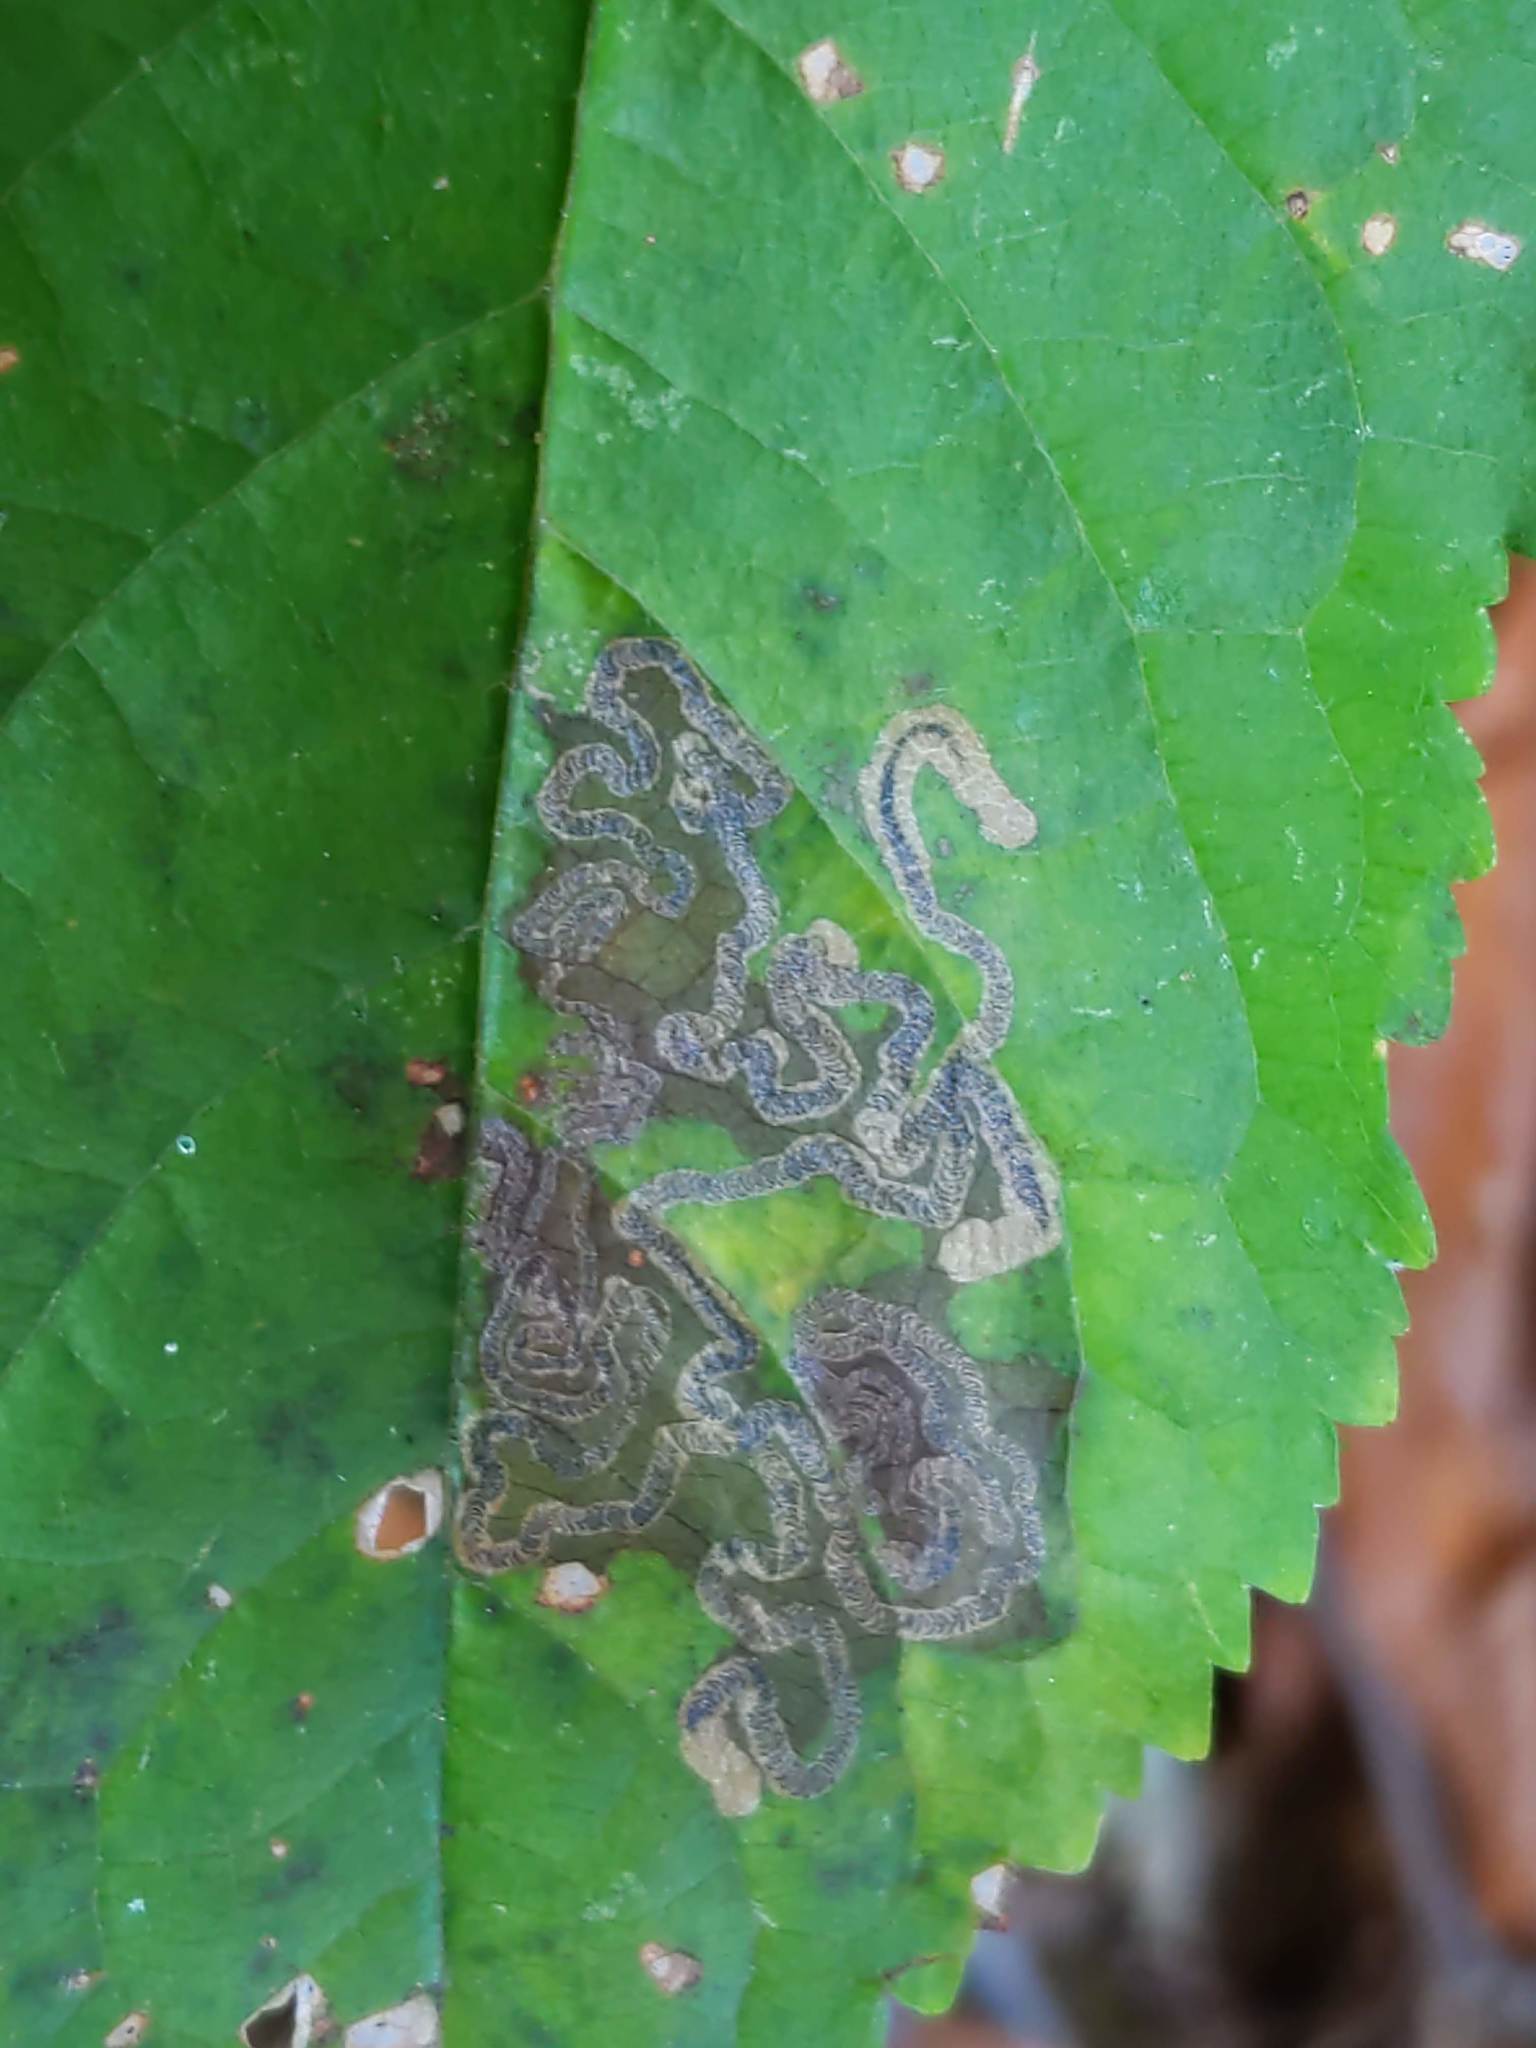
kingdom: Animalia
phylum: Arthropoda
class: Insecta
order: Lepidoptera
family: Nepticulidae
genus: Stigmella
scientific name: Stigmella prunifoliella
